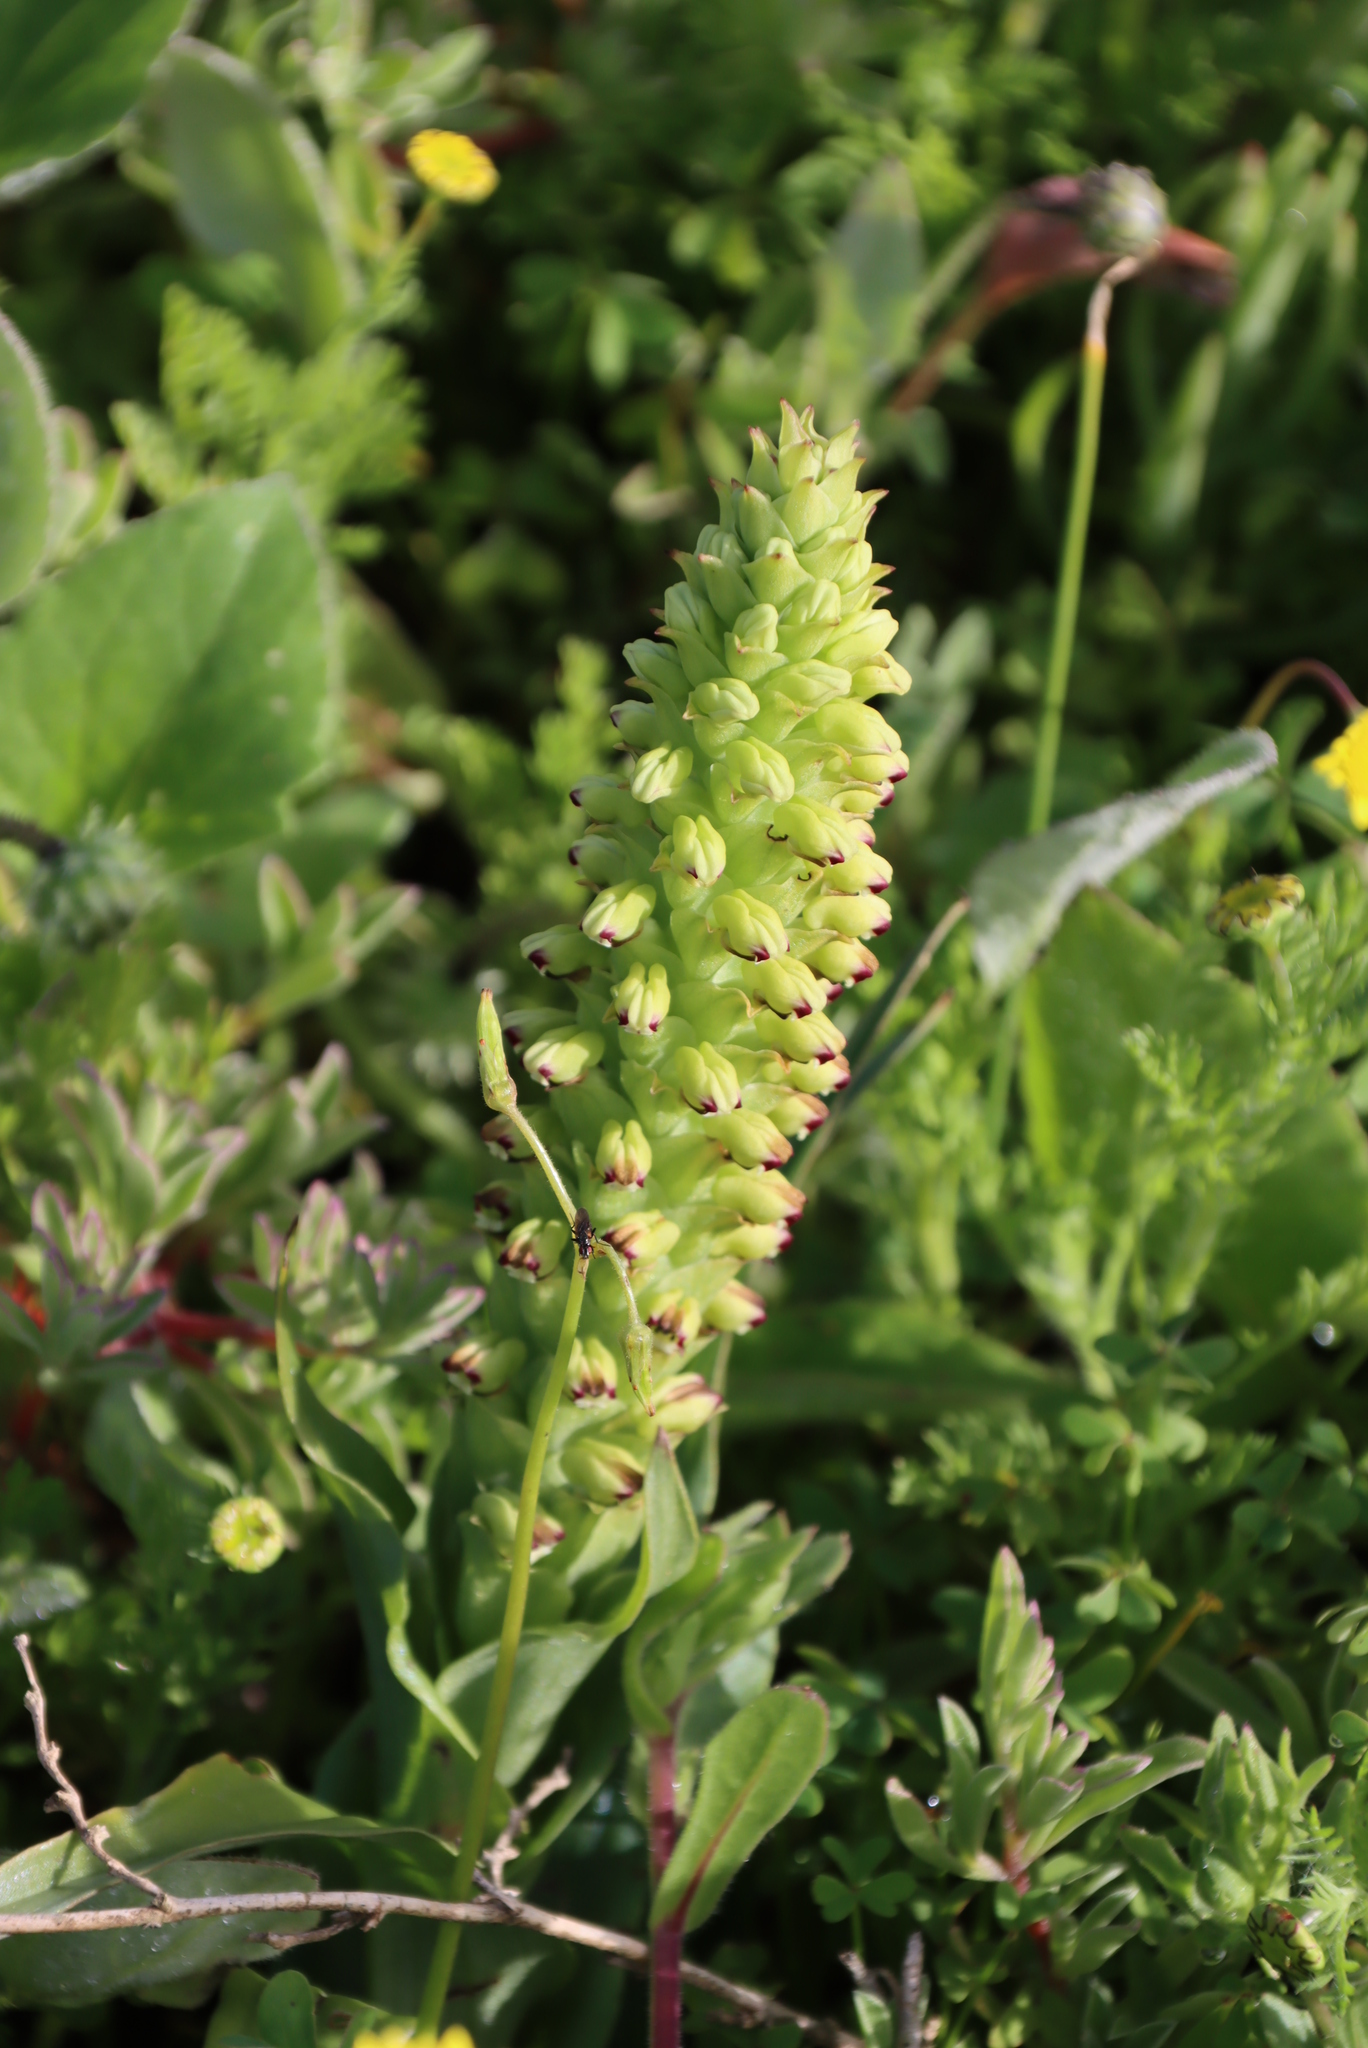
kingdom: Plantae
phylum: Tracheophyta
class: Liliopsida
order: Asparagales
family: Orchidaceae
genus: Corycium
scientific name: Corycium orobanchoides
